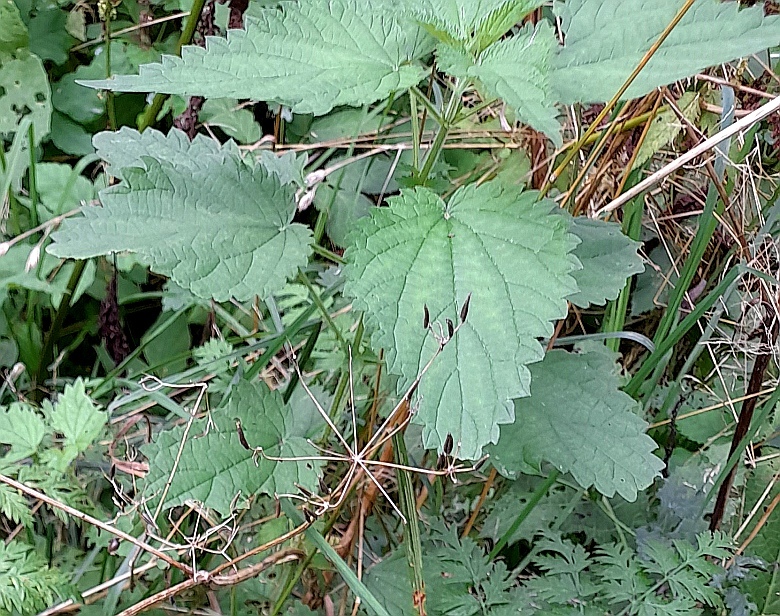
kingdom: Plantae
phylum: Tracheophyta
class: Magnoliopsida
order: Rosales
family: Urticaceae
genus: Urtica
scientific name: Urtica dioica
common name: Common nettle
